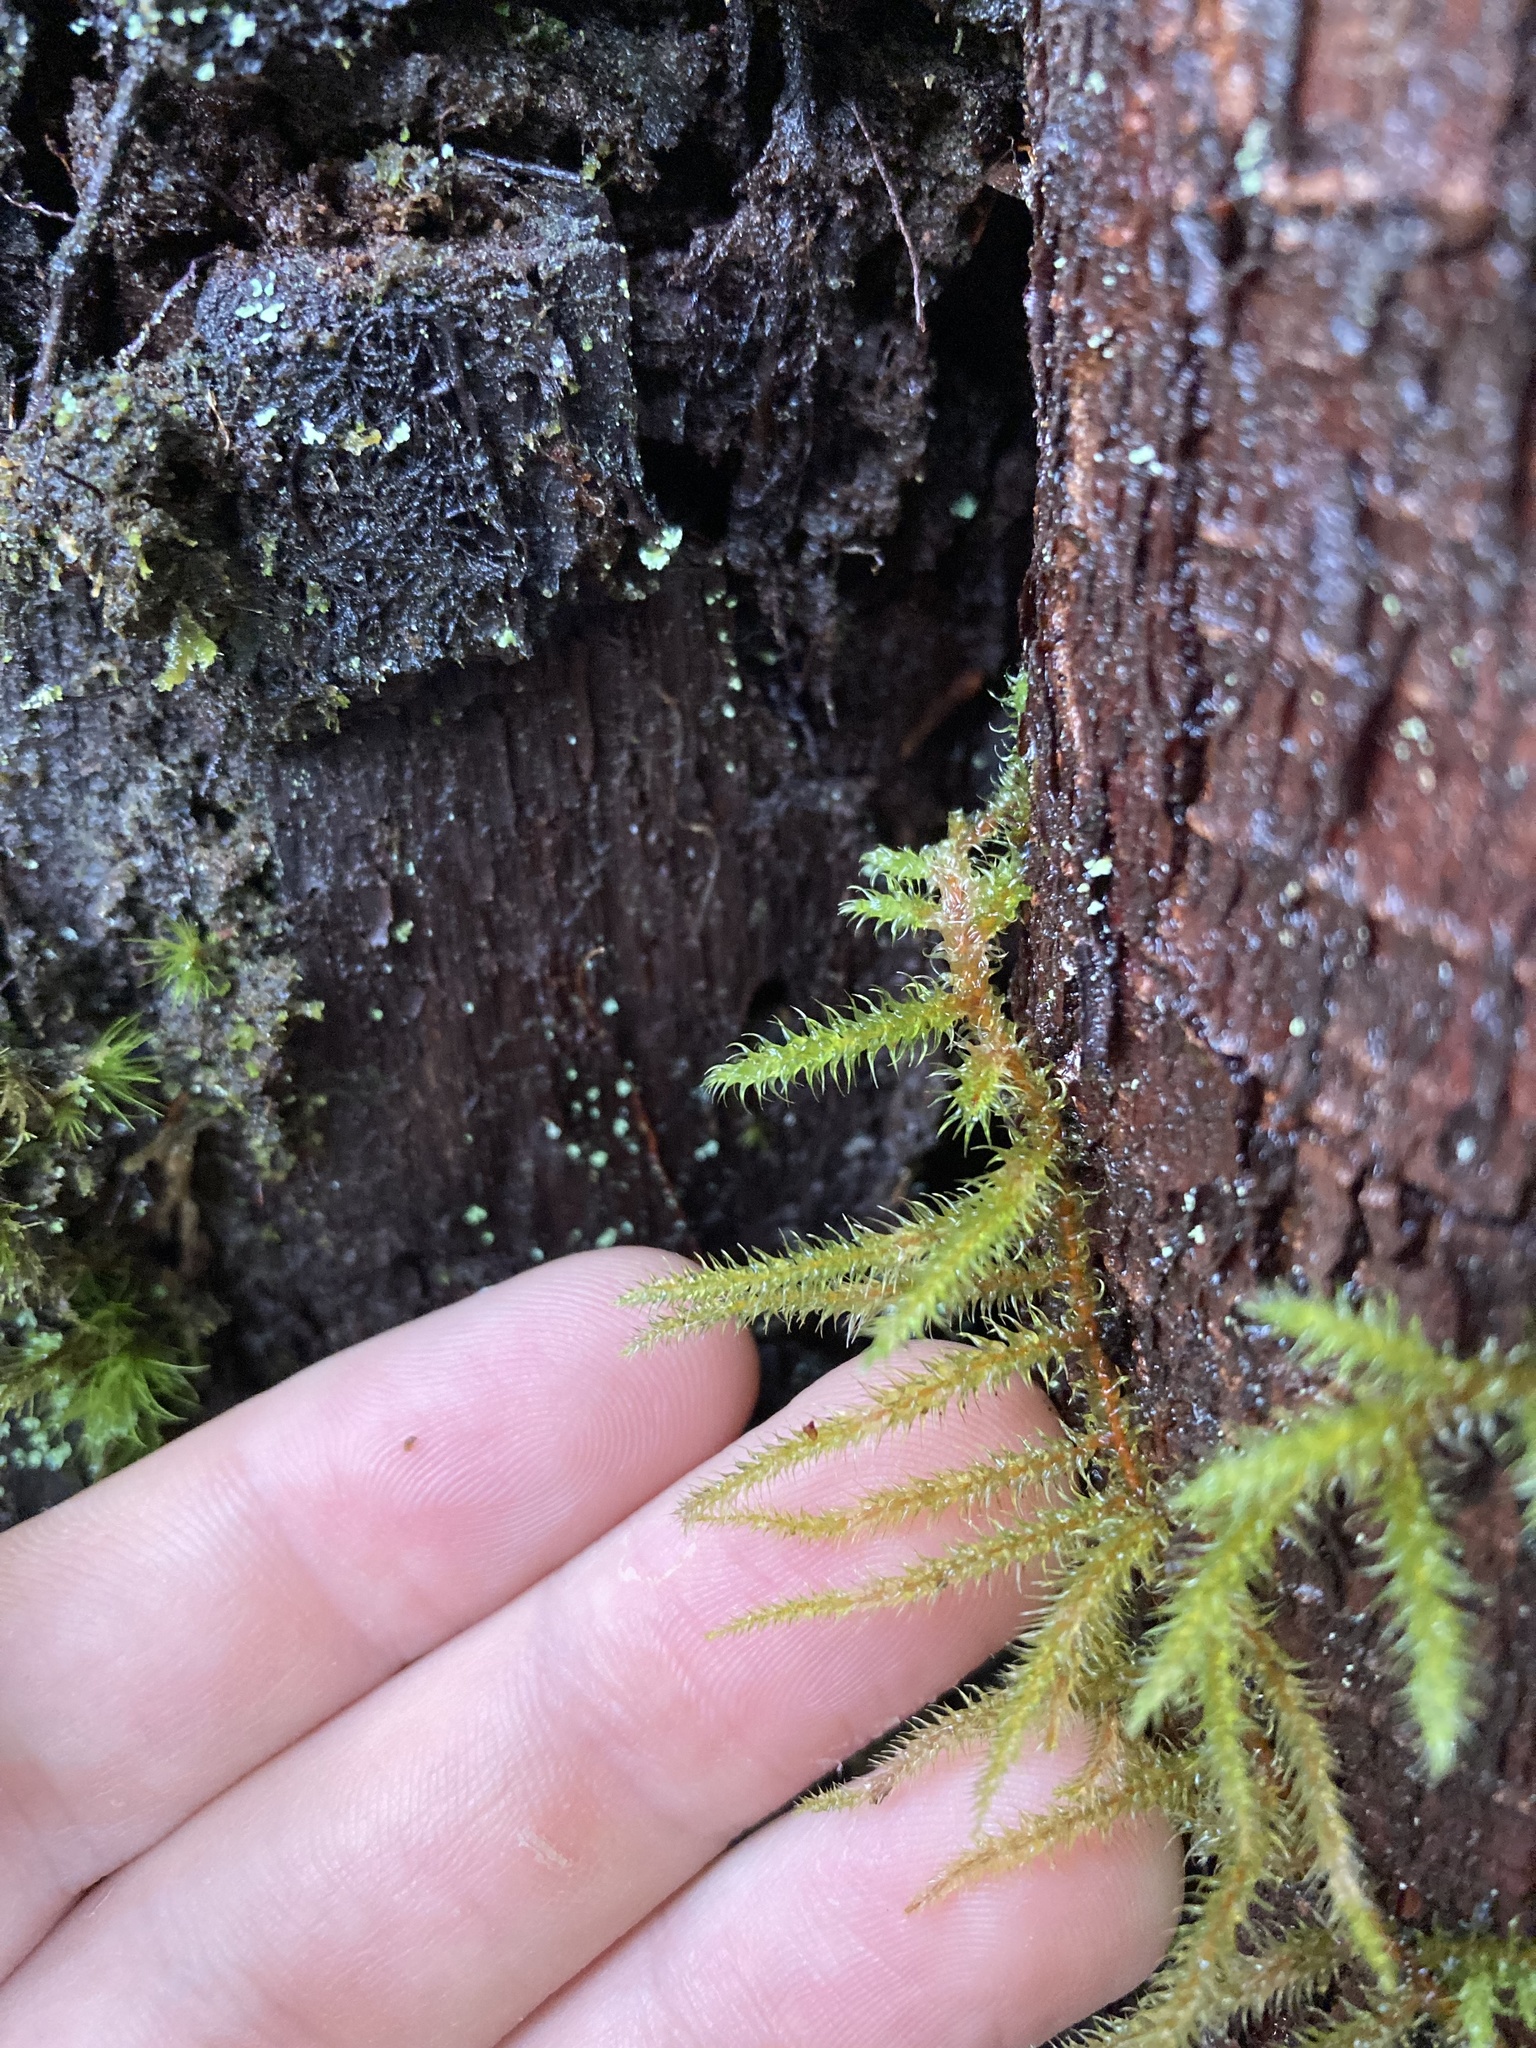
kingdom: Plantae
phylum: Bryophyta
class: Bryopsida
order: Hypnales
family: Hylocomiaceae
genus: Rhytidiadelphus
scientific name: Rhytidiadelphus loreus
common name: Lanky moss
